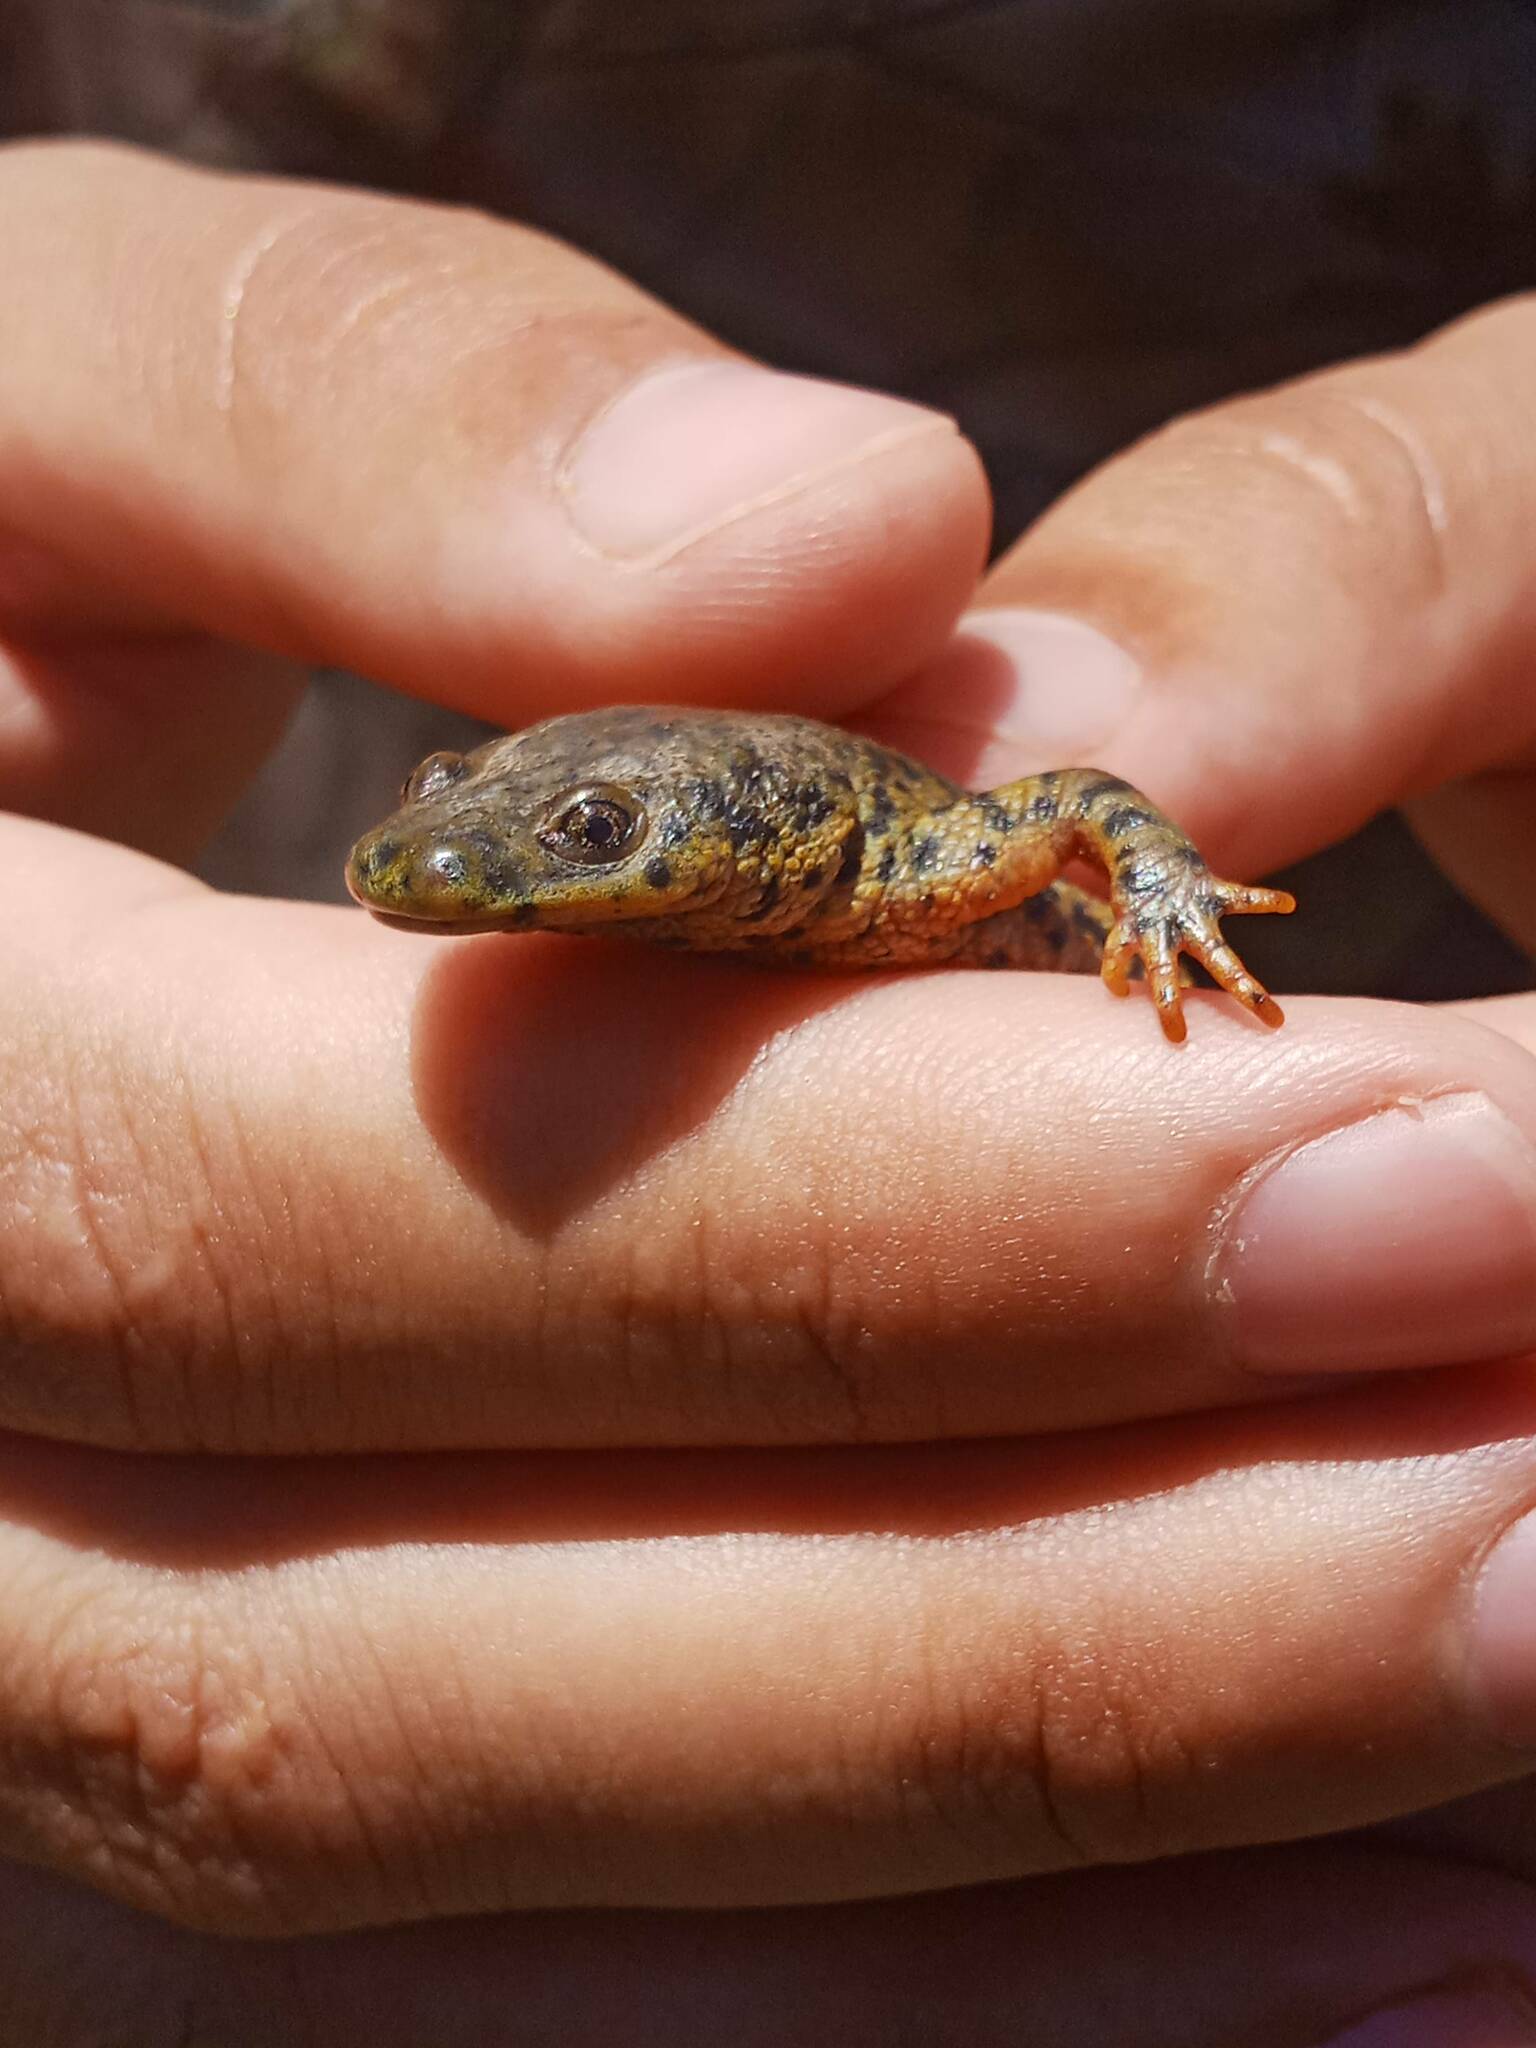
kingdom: Animalia
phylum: Chordata
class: Amphibia
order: Caudata
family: Salamandridae
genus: Pleurodeles
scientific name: Pleurodeles nebulosus
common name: Algerian ribbed newt
